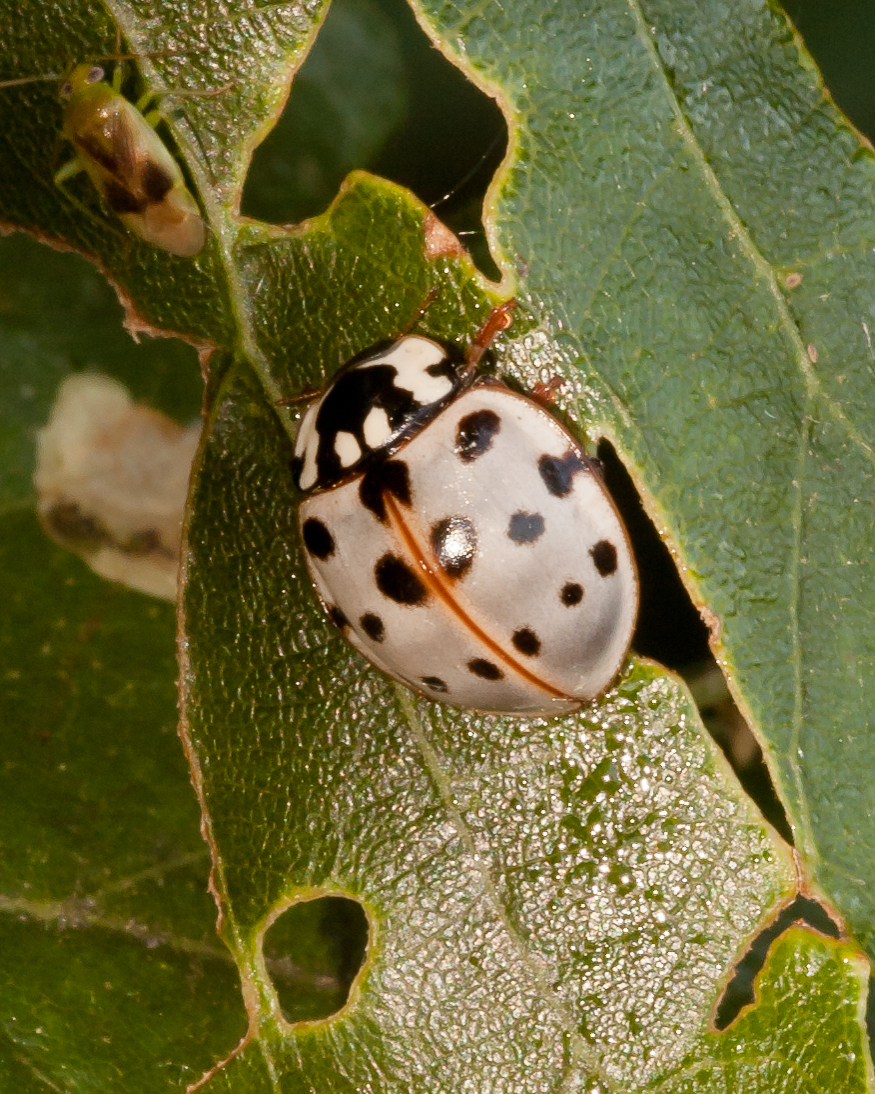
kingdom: Animalia
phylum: Arthropoda
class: Insecta
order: Coleoptera
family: Coccinellidae
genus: Anatis
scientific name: Anatis labiculata
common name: Fifteen-spotted lady beetle
